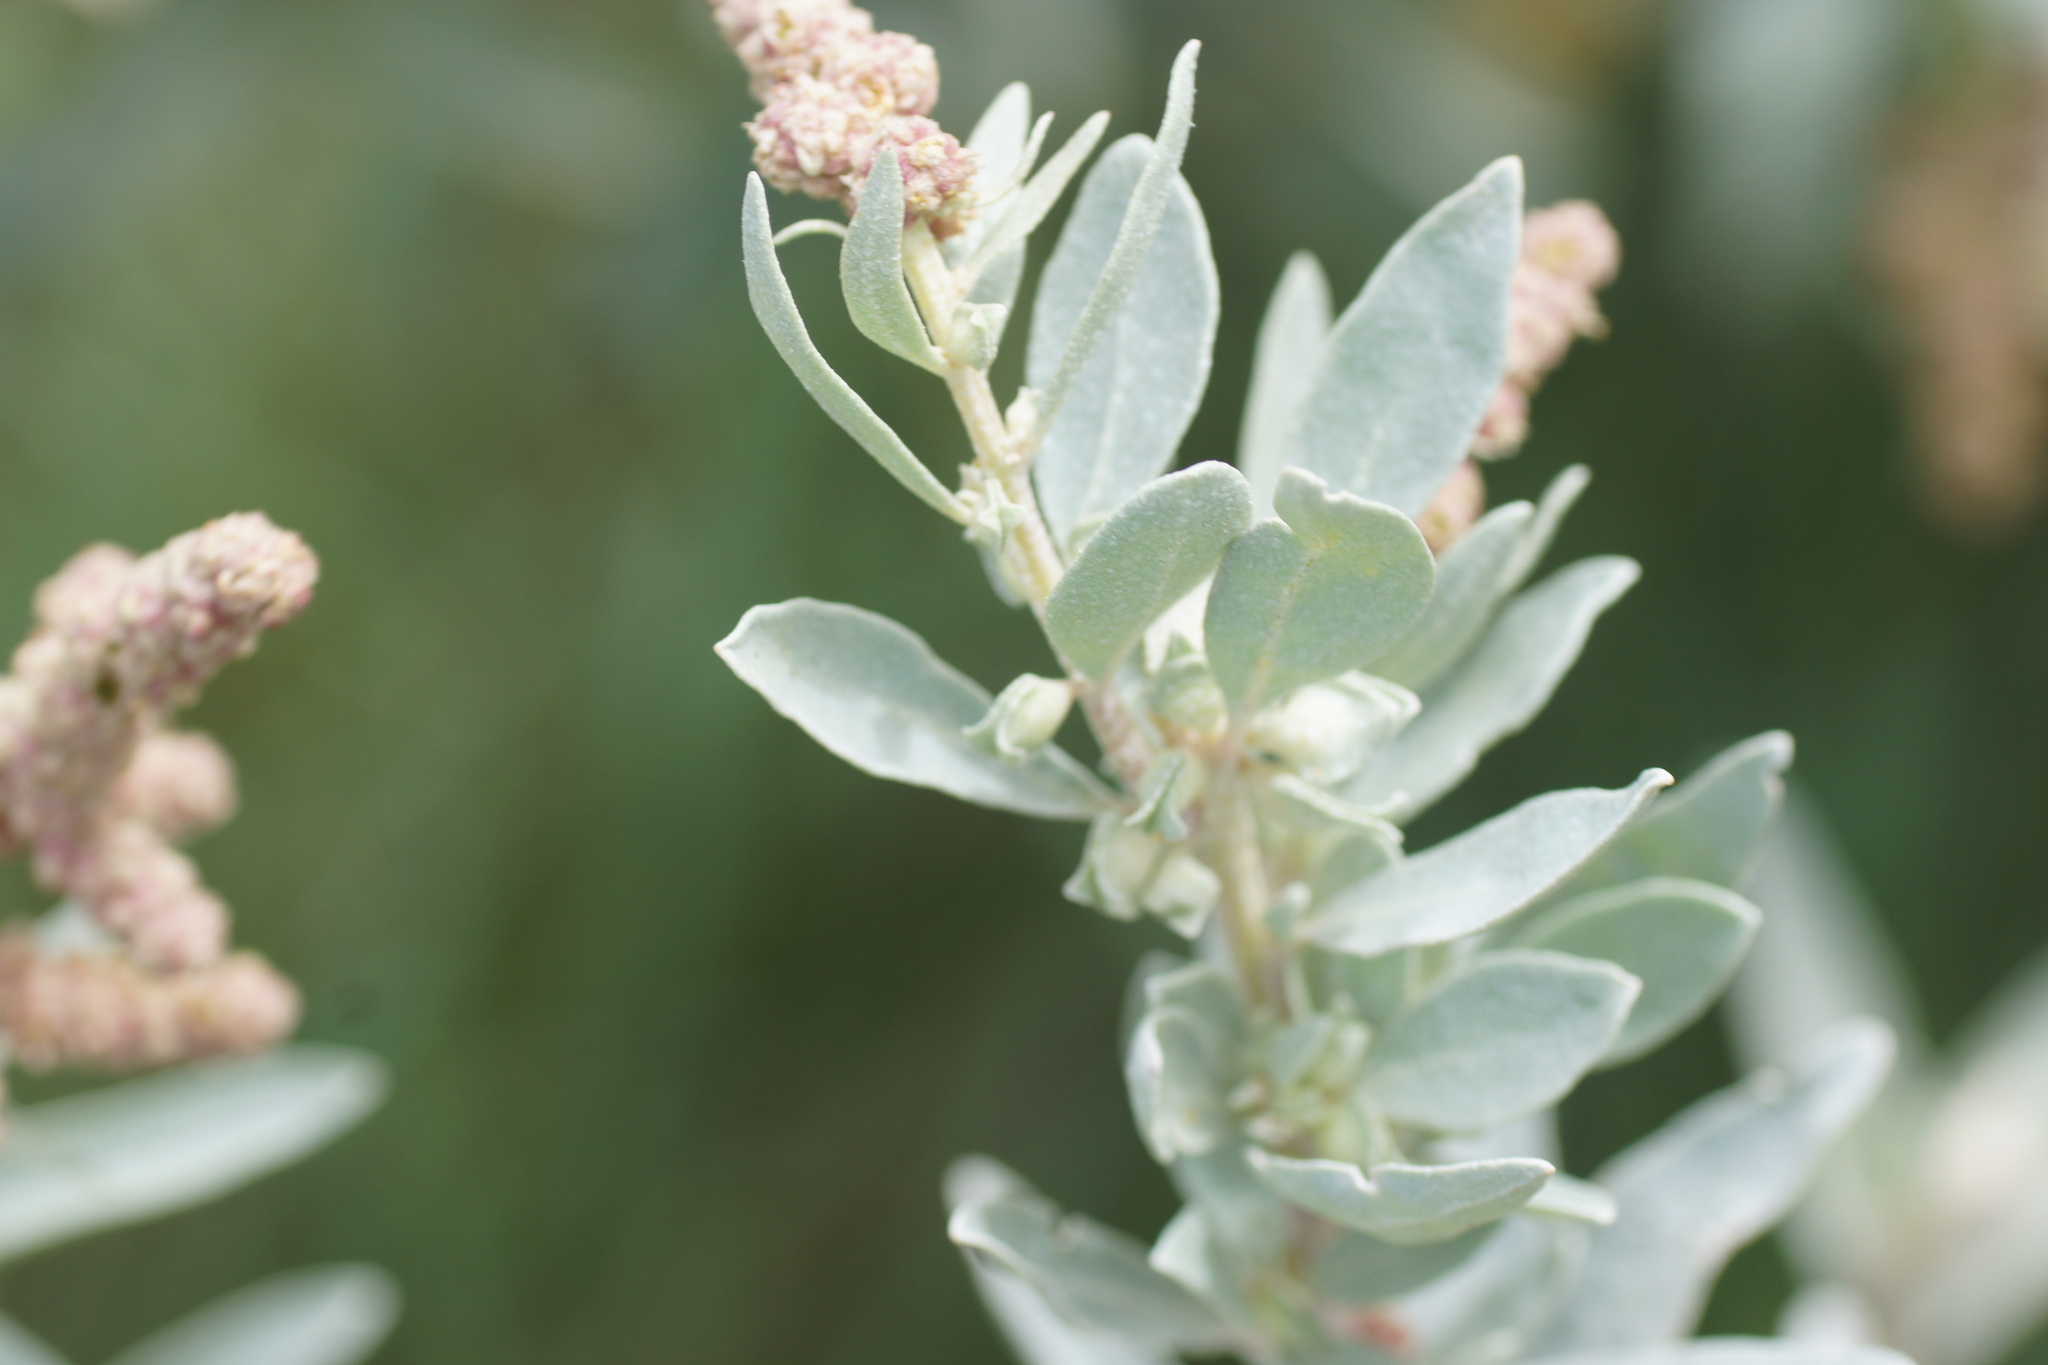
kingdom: Plantae
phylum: Tracheophyta
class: Magnoliopsida
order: Caryophyllales
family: Amaranthaceae
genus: Atriplex
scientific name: Atriplex cinerea
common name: Grey saltbush
